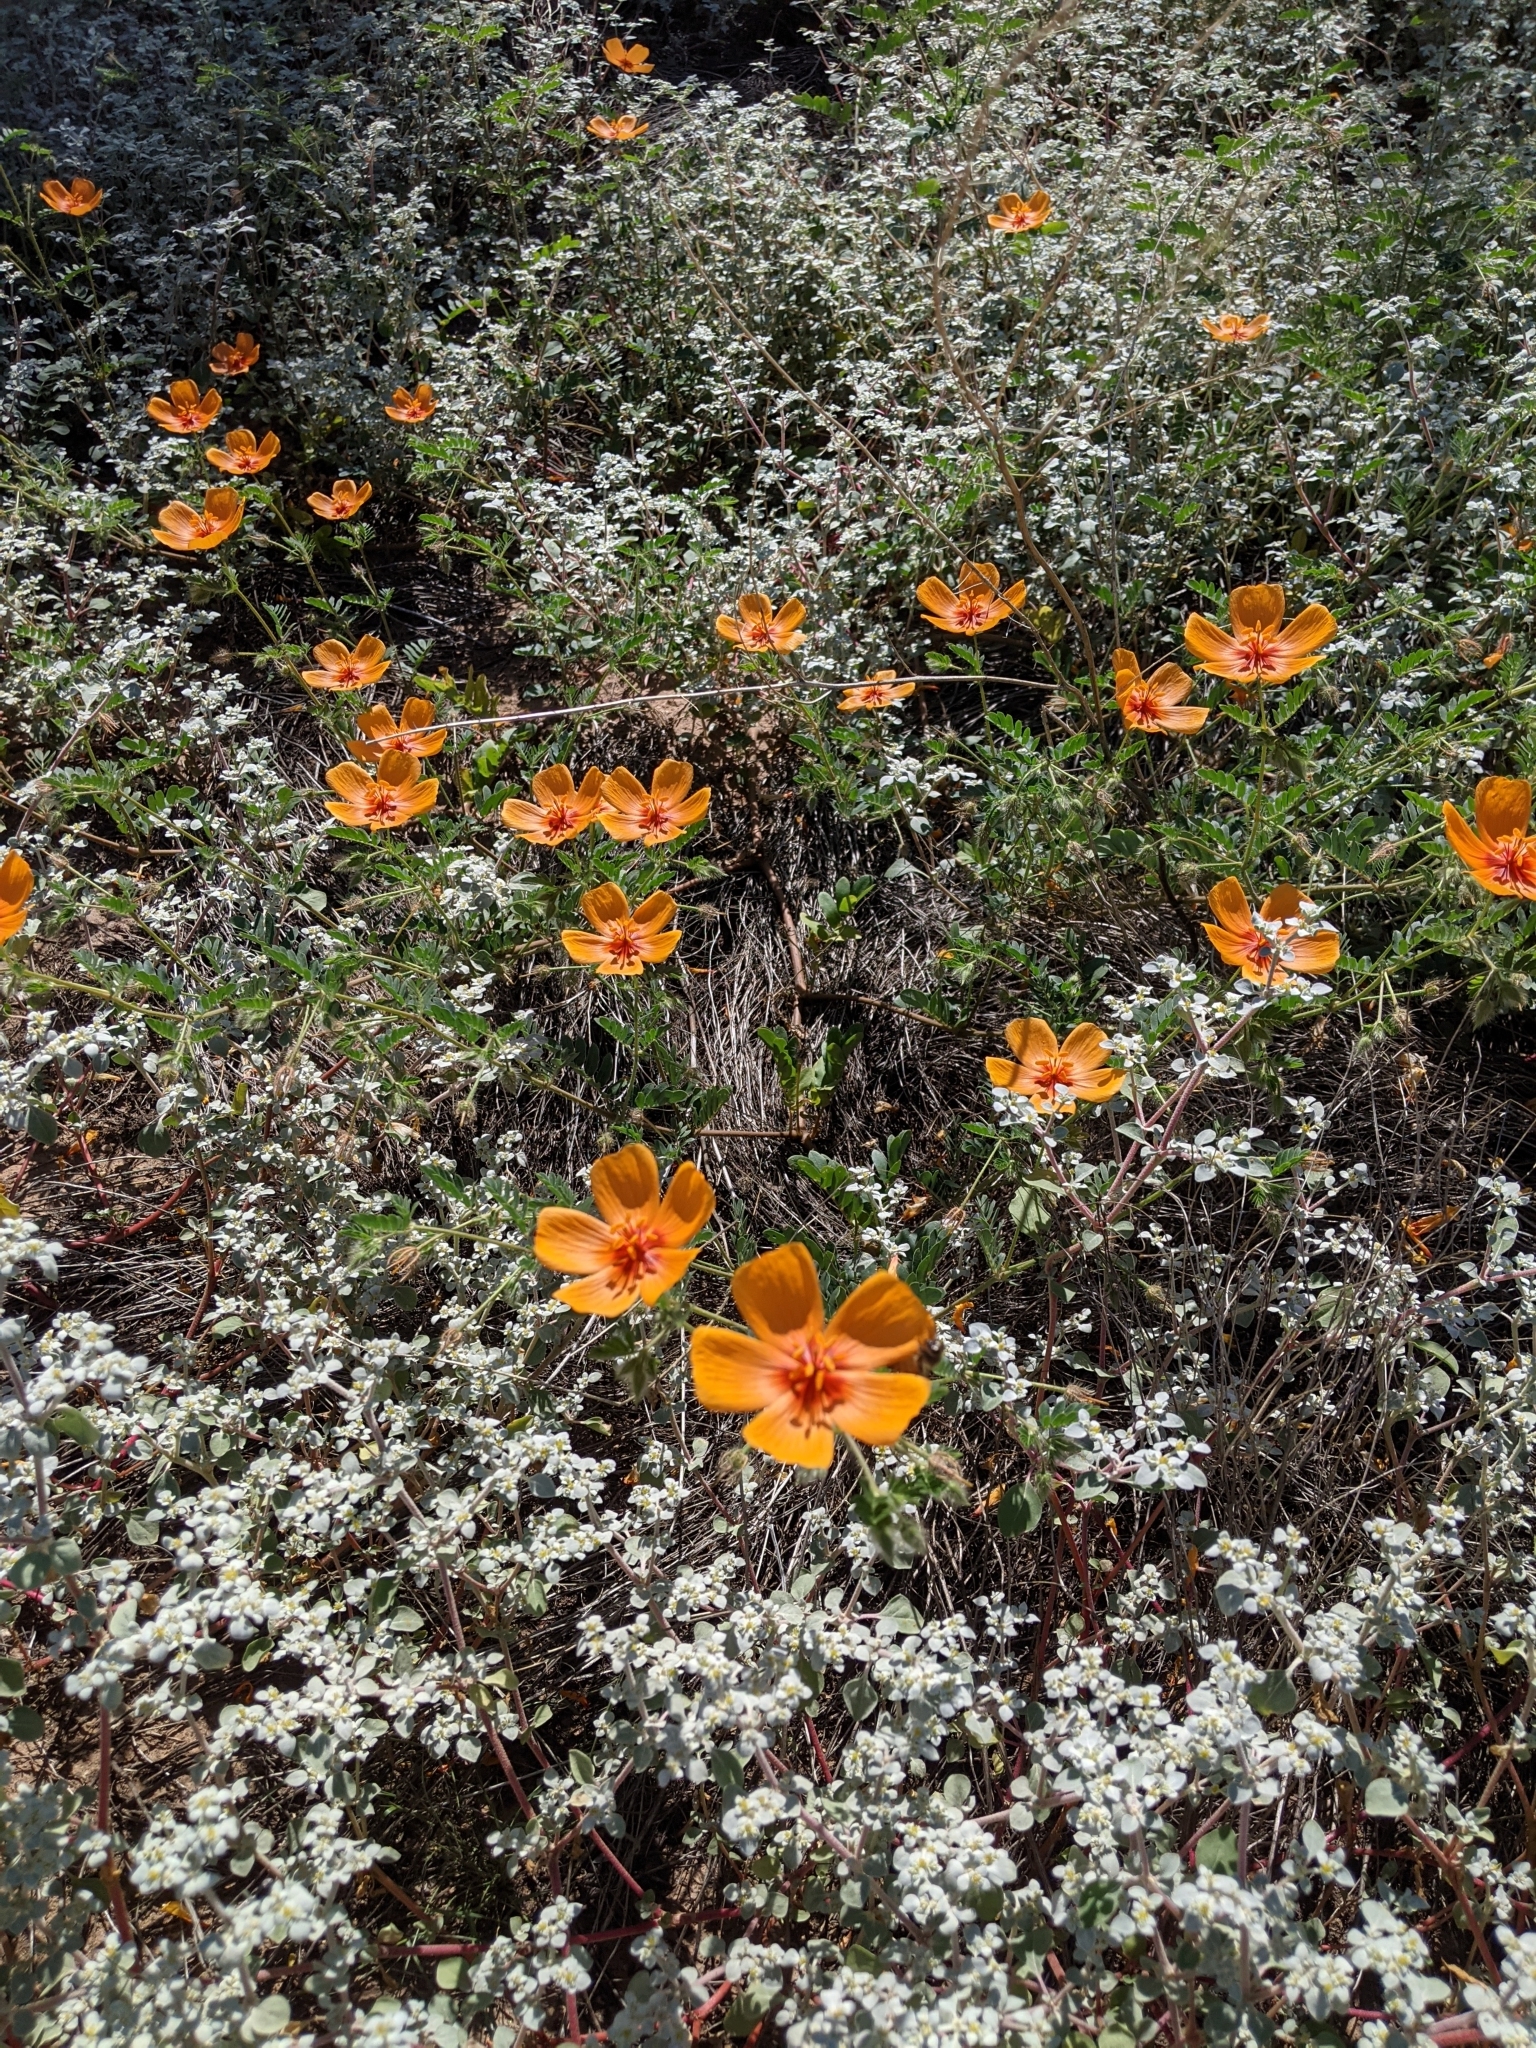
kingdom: Plantae
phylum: Tracheophyta
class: Magnoliopsida
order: Zygophyllales
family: Zygophyllaceae
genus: Kallstroemia
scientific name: Kallstroemia grandiflora
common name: Arizona-poppy
